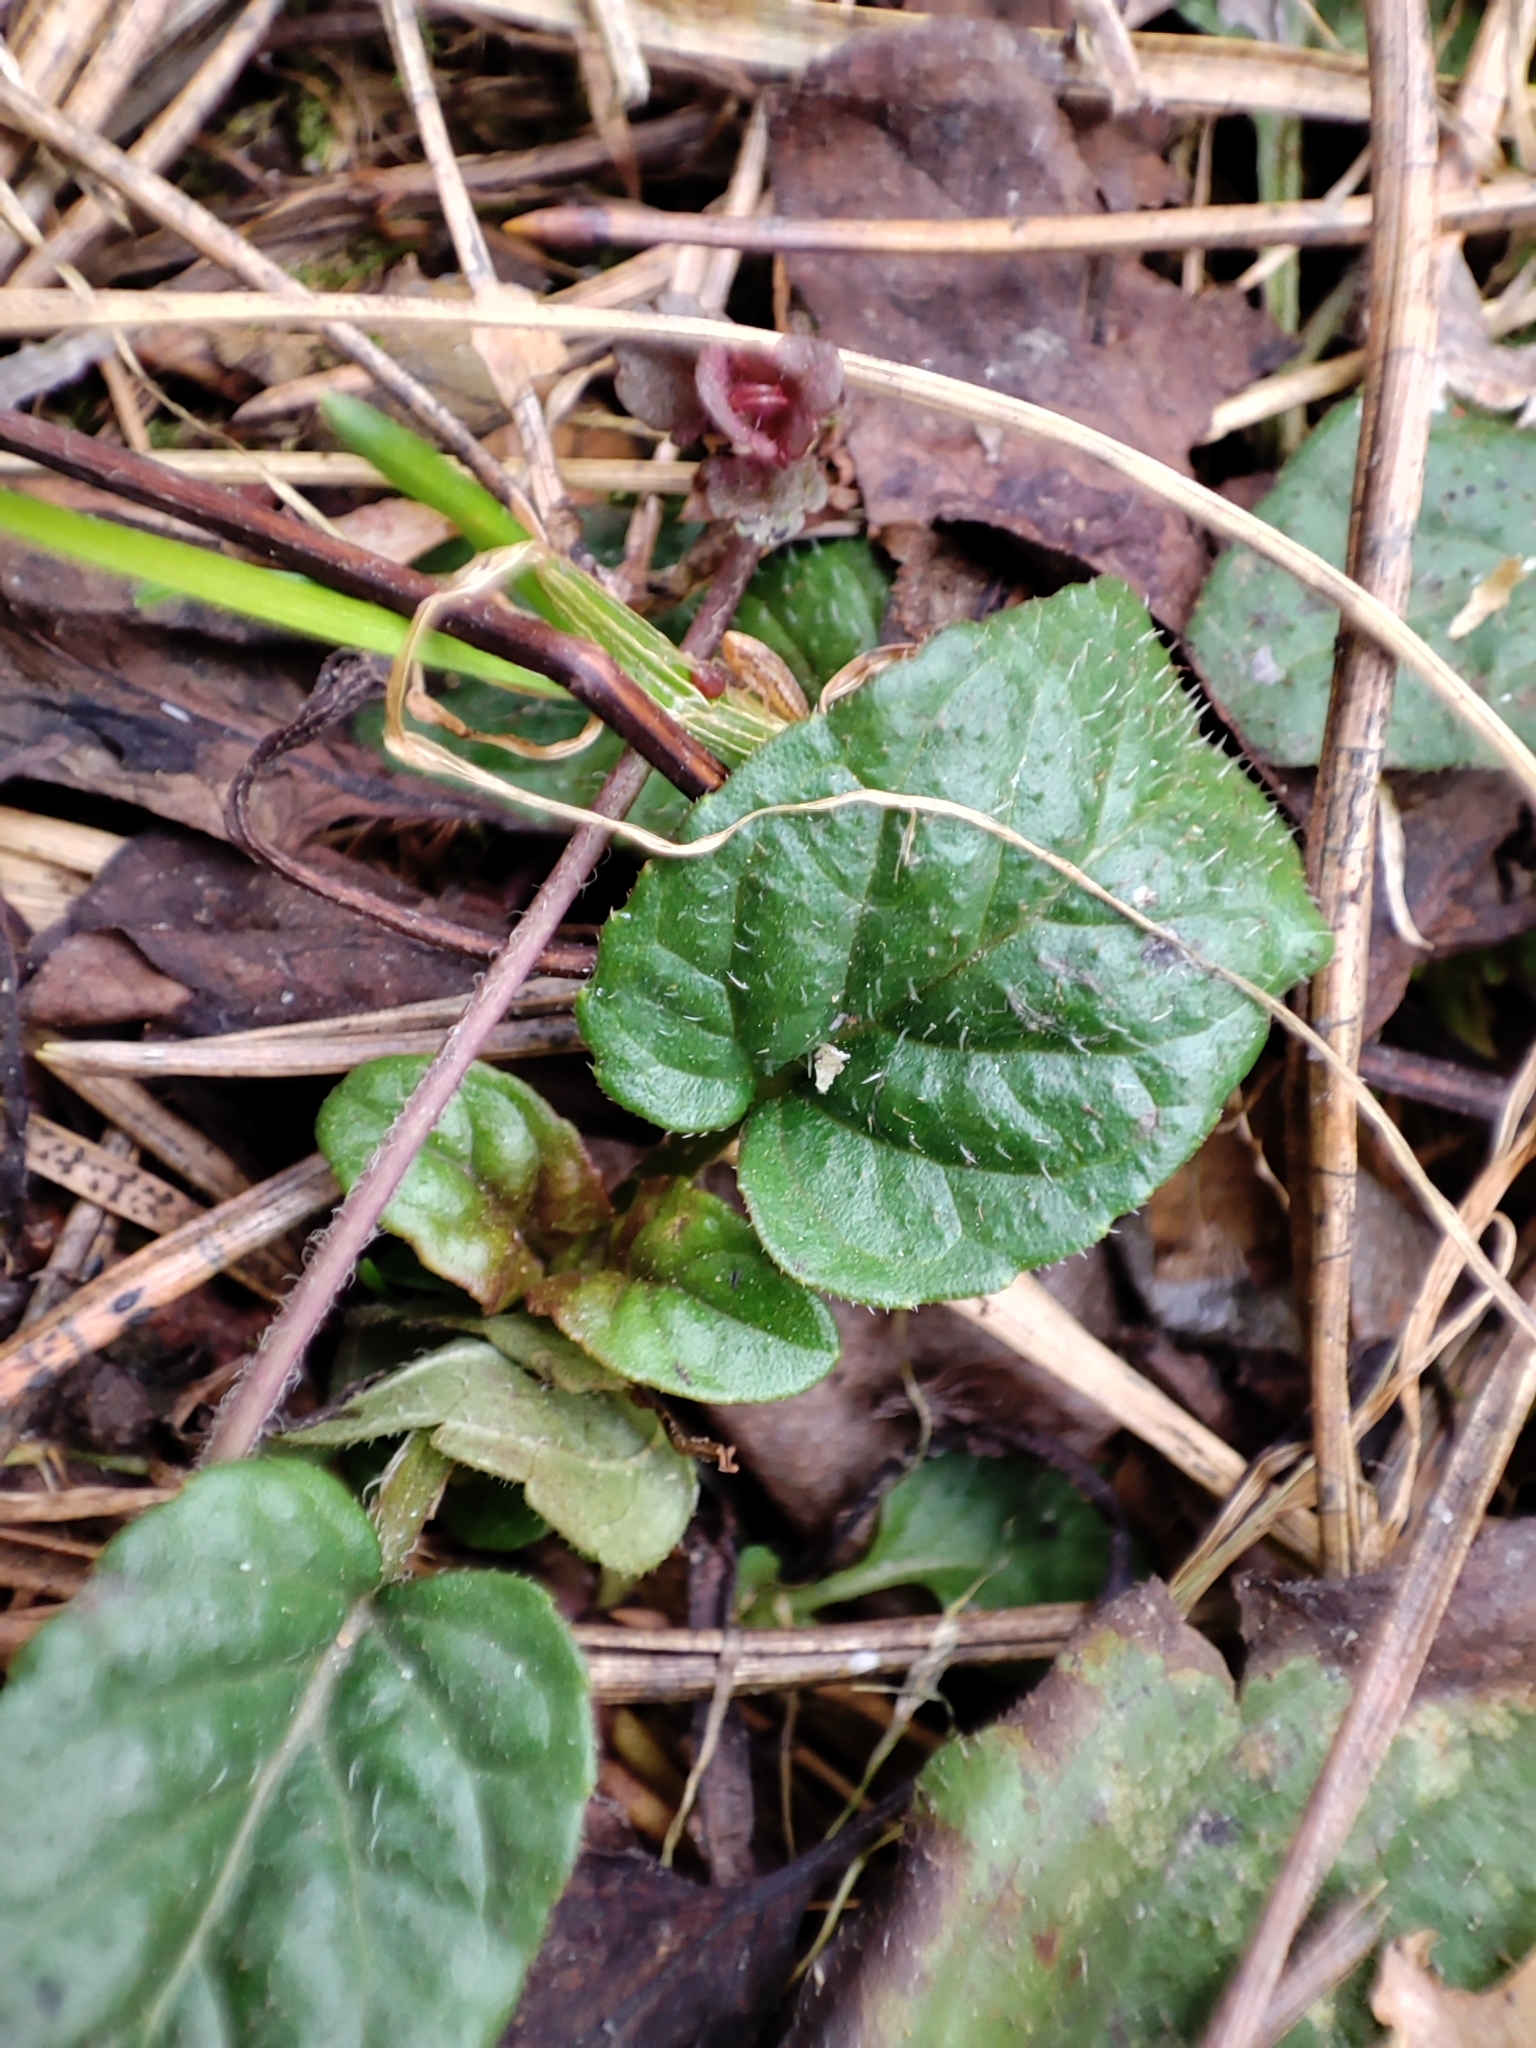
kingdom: Plantae
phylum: Tracheophyta
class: Magnoliopsida
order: Lamiales
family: Lamiaceae
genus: Prunella
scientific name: Prunella vulgaris
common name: Heal-all
